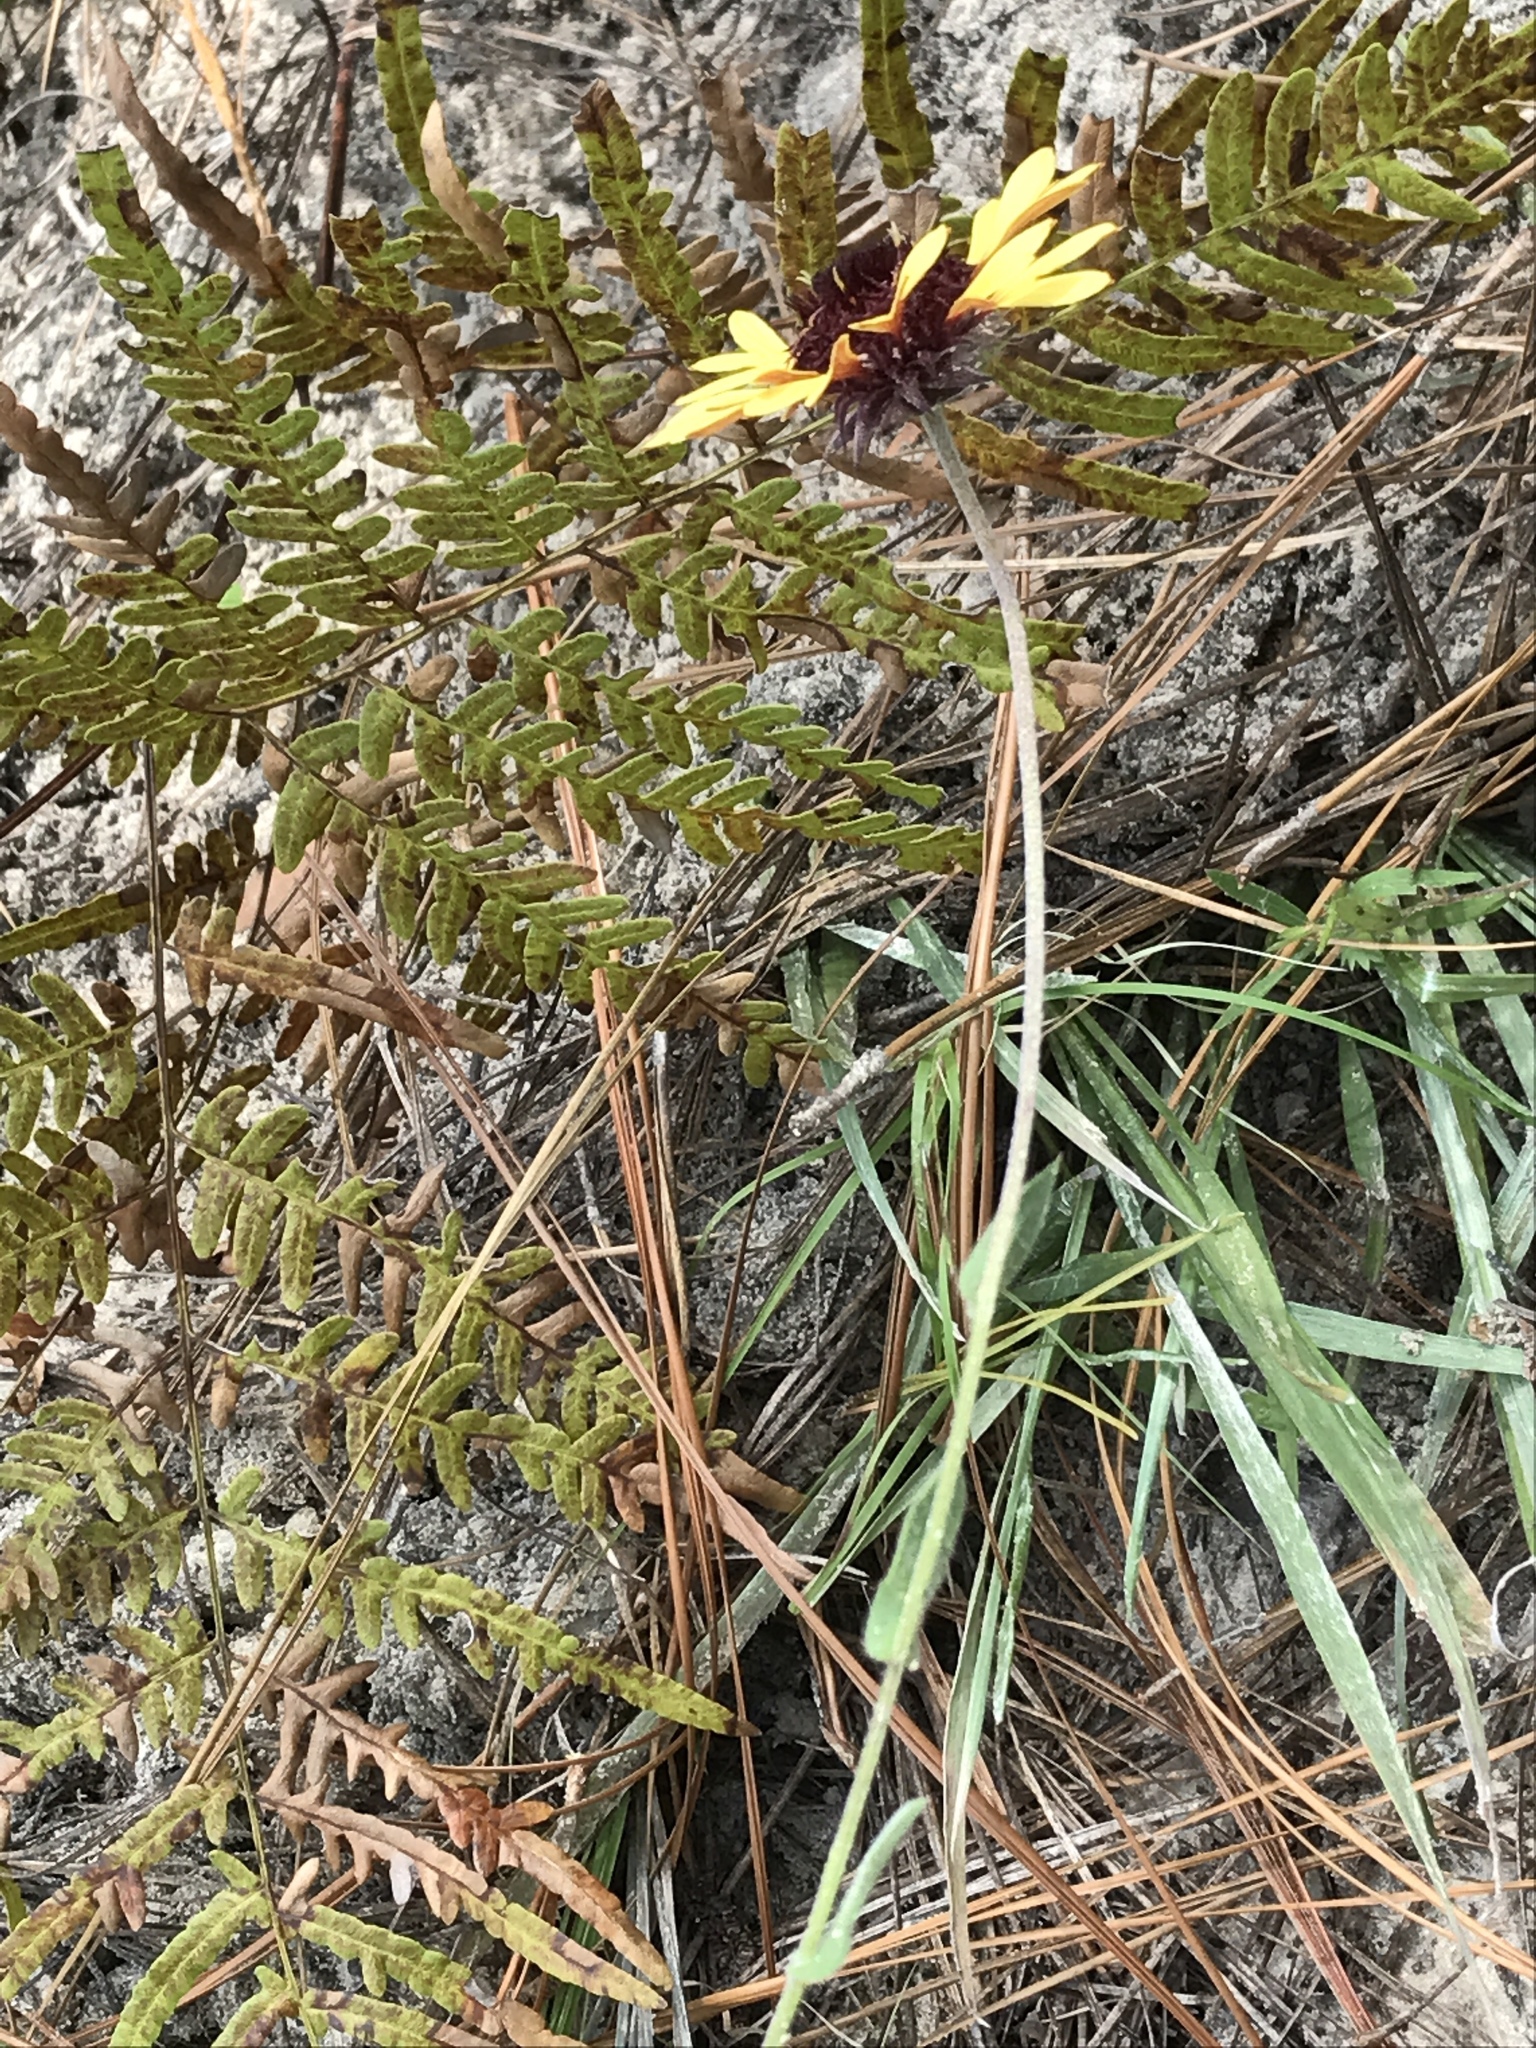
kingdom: Plantae
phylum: Tracheophyta
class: Magnoliopsida
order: Asterales
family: Asteraceae
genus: Gaillardia
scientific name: Gaillardia aestivalis
